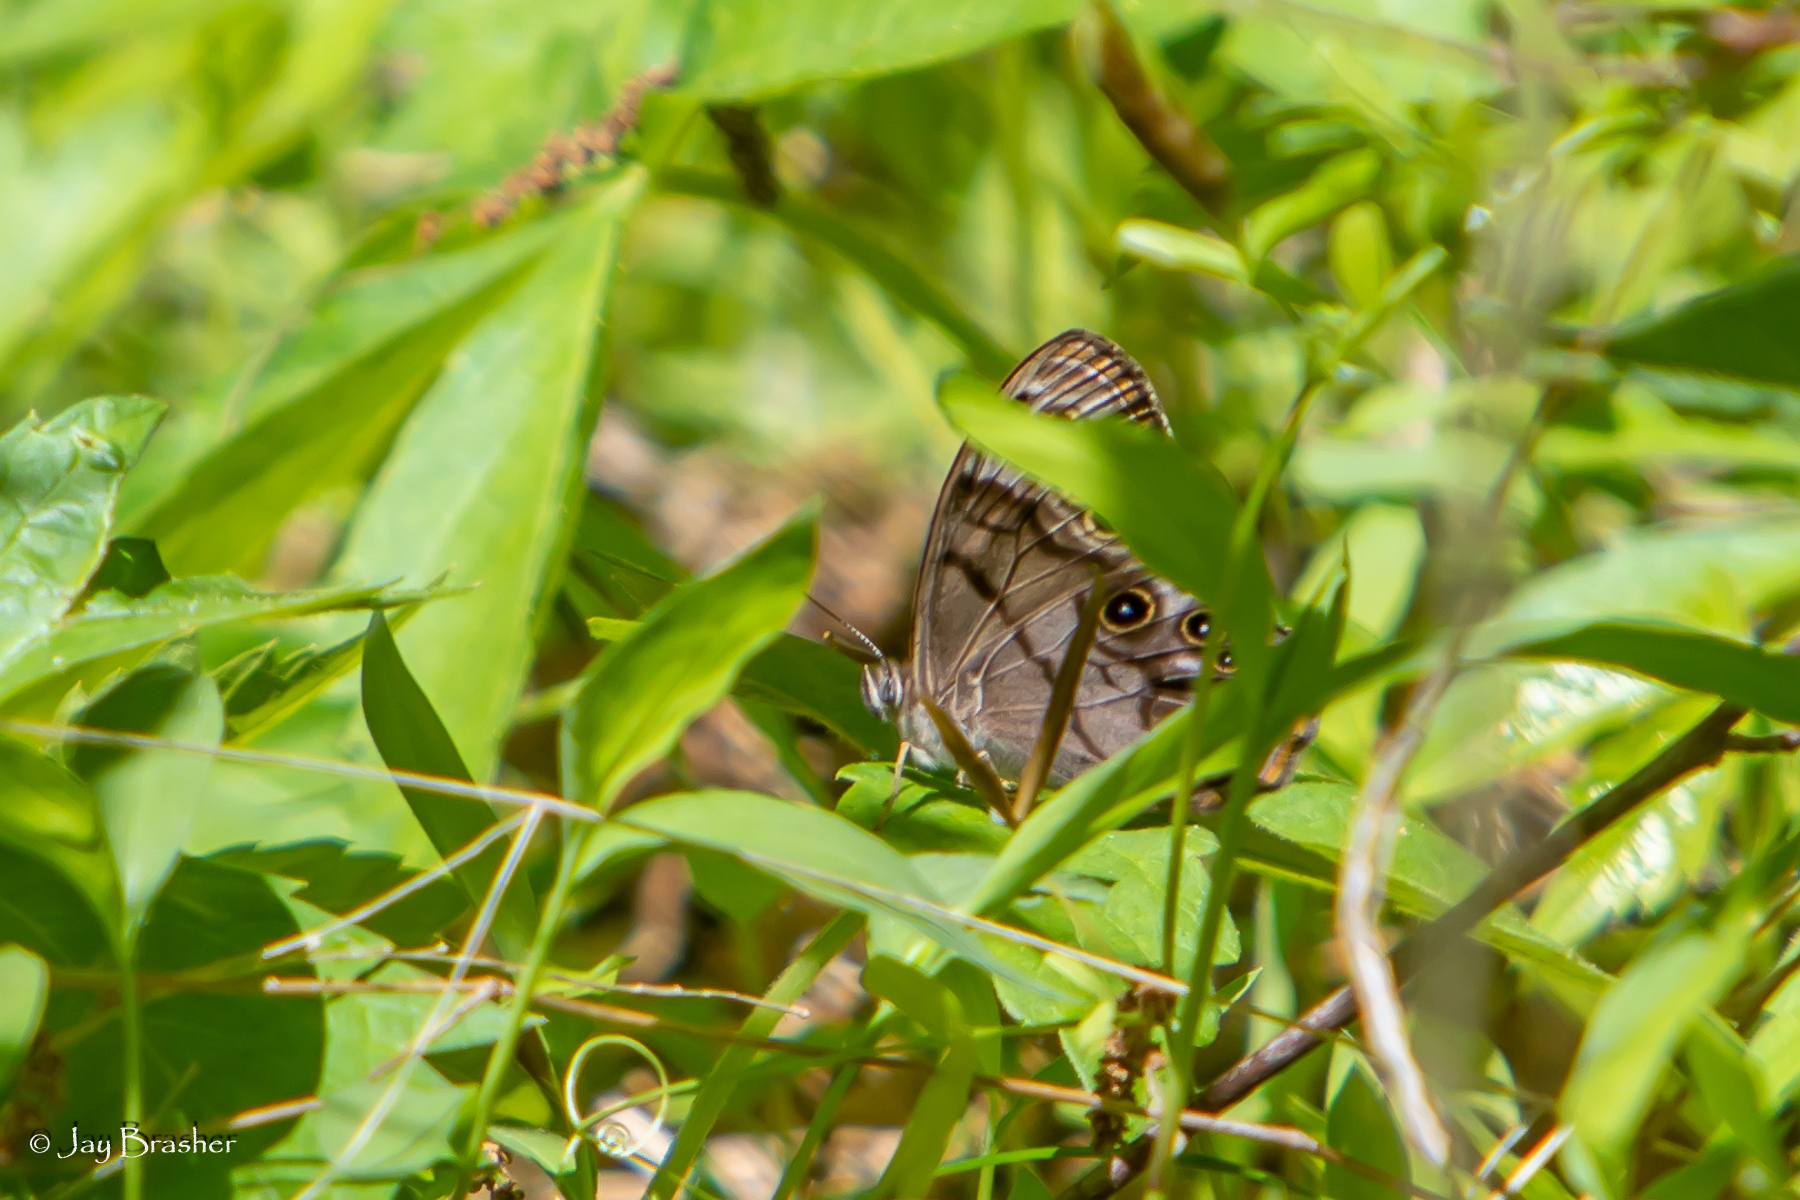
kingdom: Animalia
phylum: Arthropoda
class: Insecta
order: Lepidoptera
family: Nymphalidae
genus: Lethe
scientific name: Lethe anthedon
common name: Northern pearly-eye
